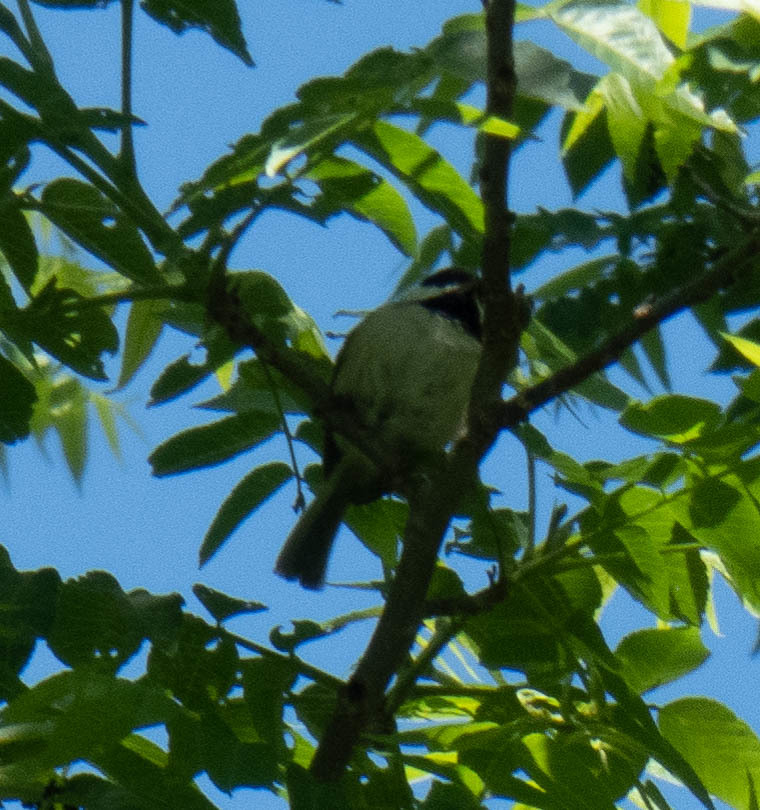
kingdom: Animalia
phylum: Chordata
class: Aves
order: Passeriformes
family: Paridae
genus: Poecile
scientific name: Poecile carolinensis
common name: Carolina chickadee
